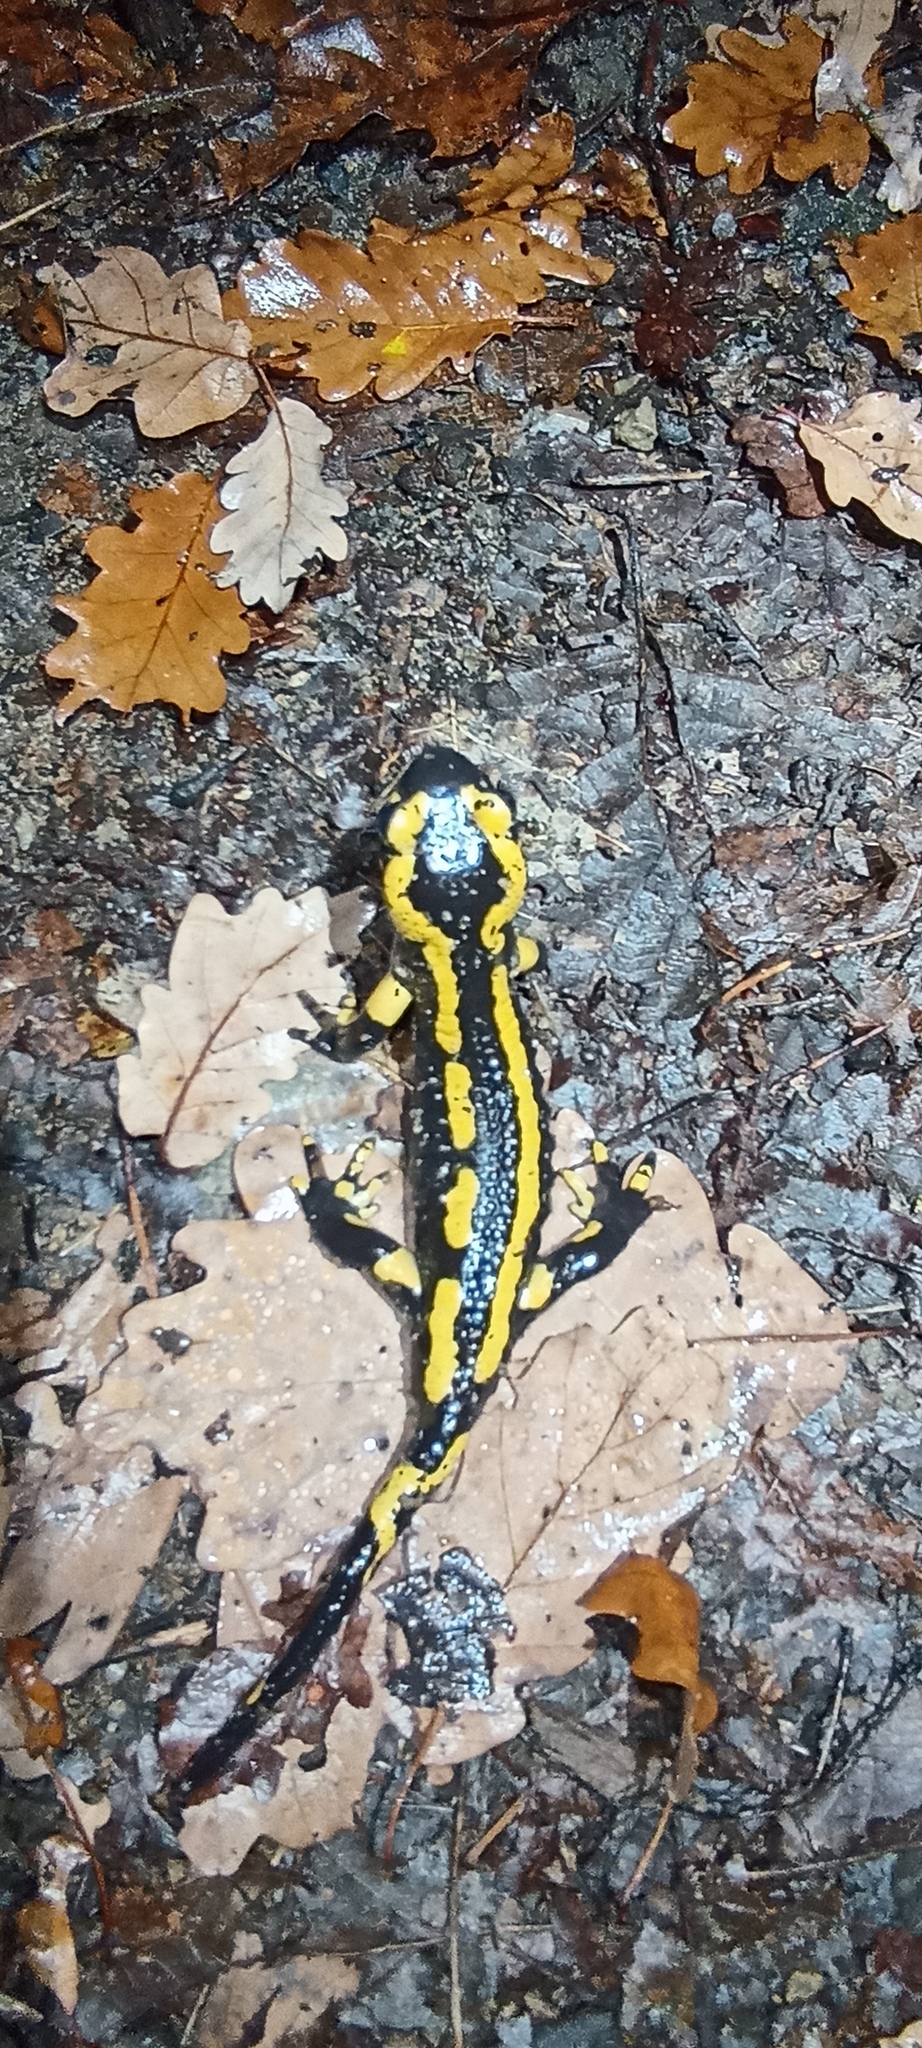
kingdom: Animalia
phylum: Chordata
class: Amphibia
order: Caudata
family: Salamandridae
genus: Salamandra
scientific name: Salamandra salamandra
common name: Fire salamander
